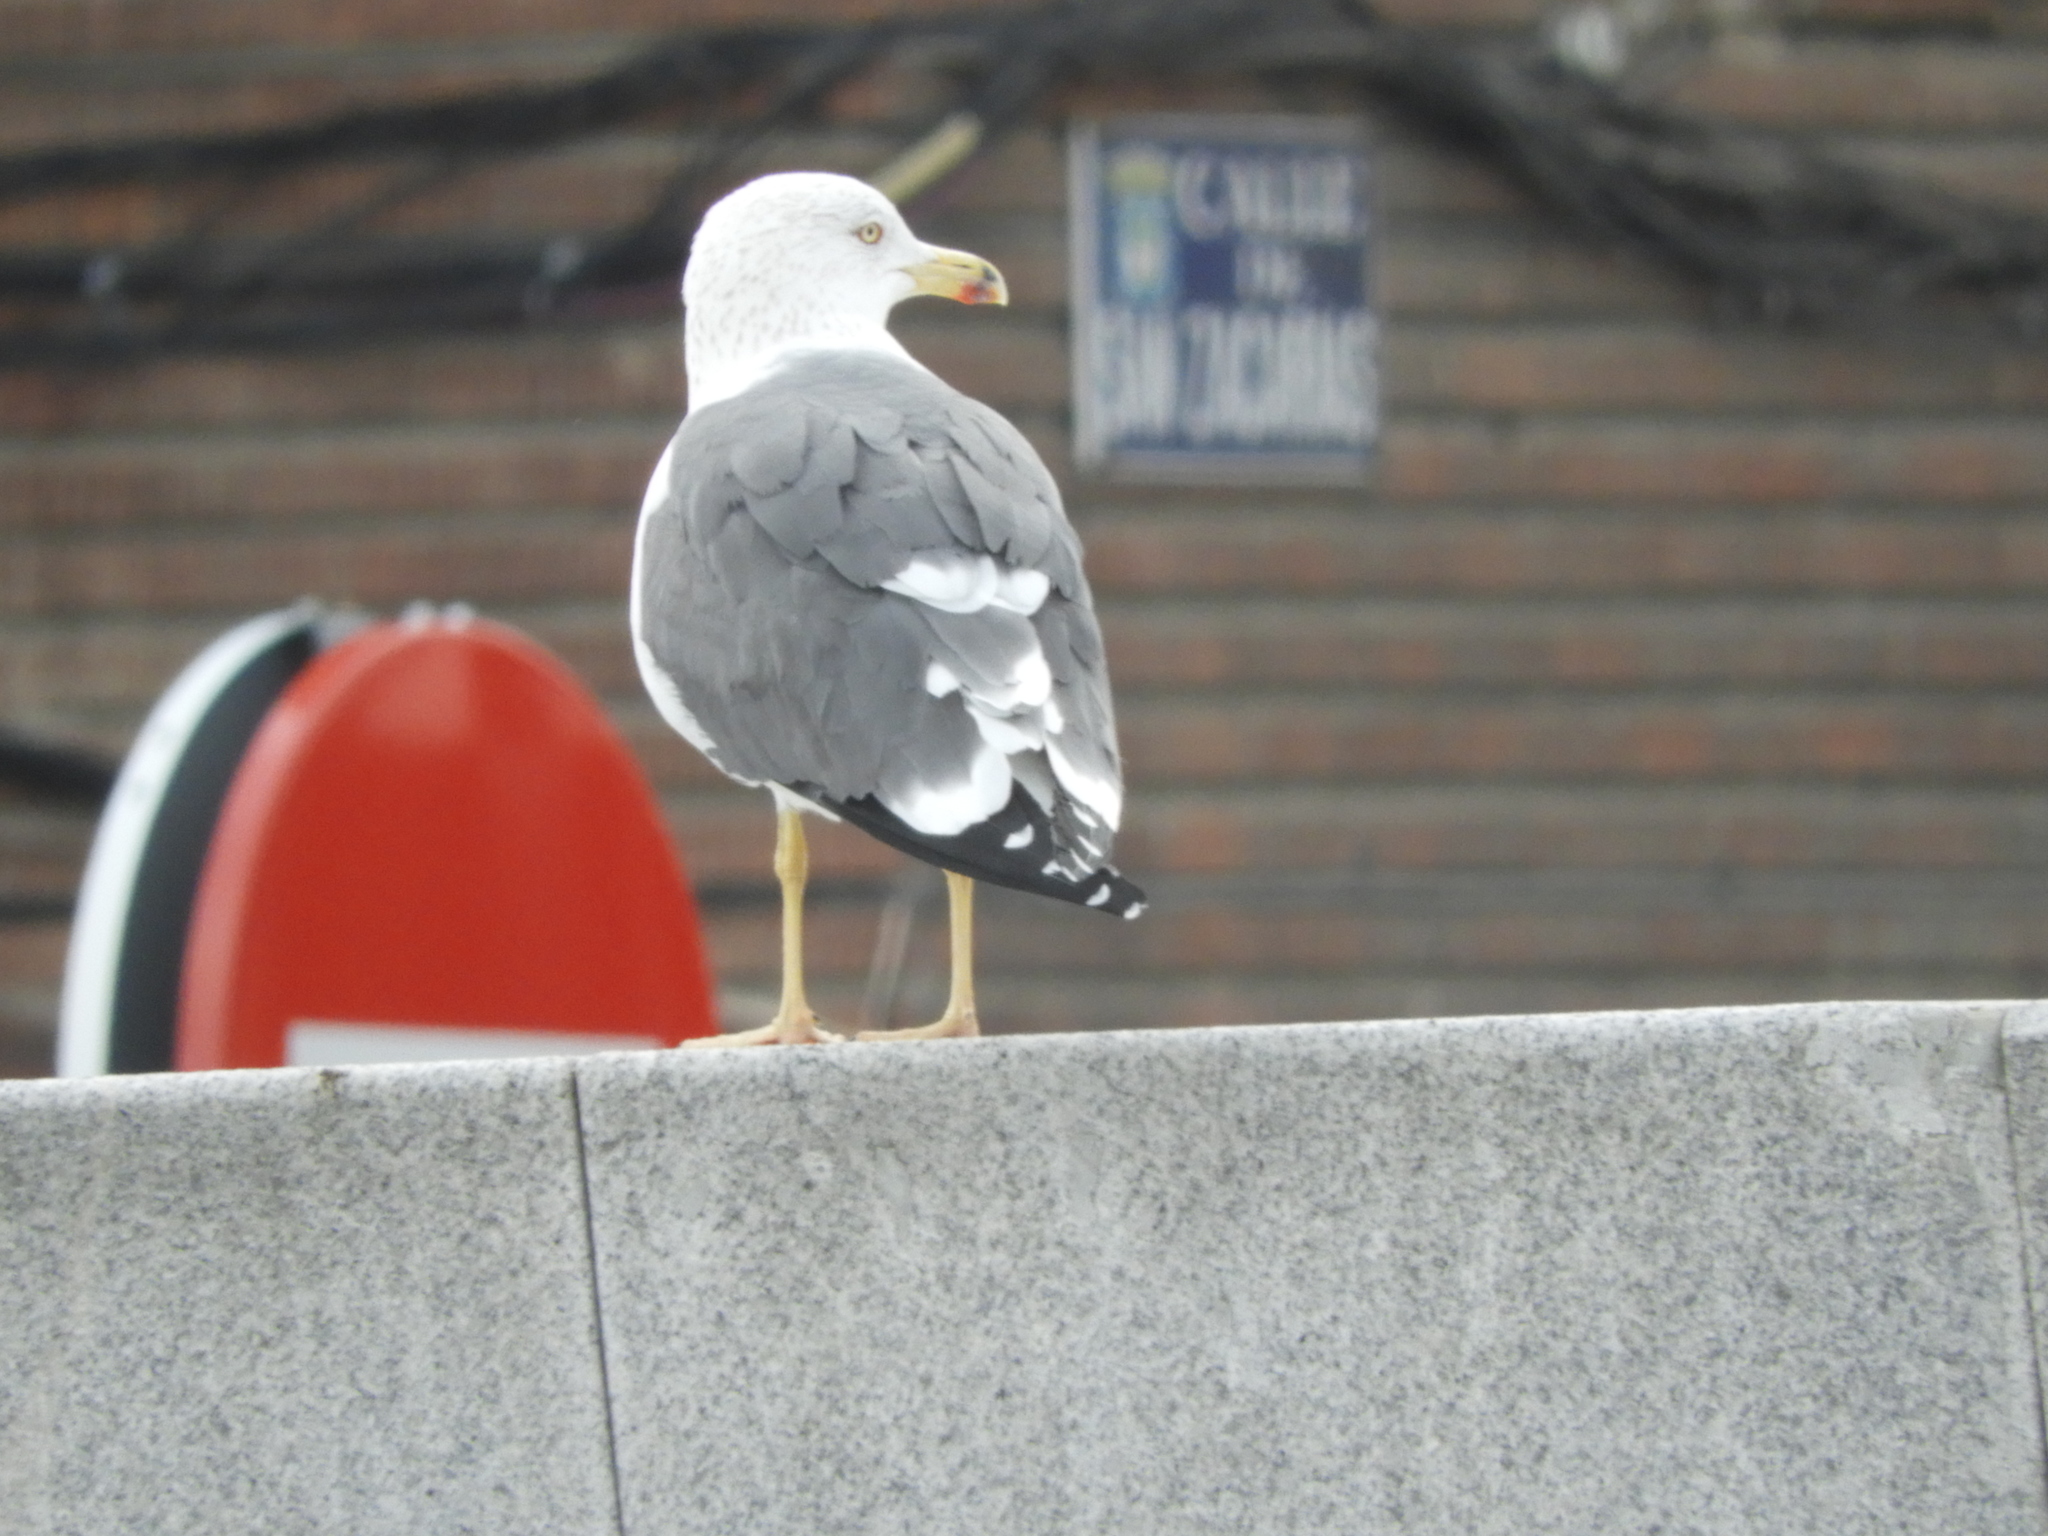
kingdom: Animalia
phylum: Chordata
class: Aves
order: Charadriiformes
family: Laridae
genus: Larus
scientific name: Larus fuscus
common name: Lesser black-backed gull
